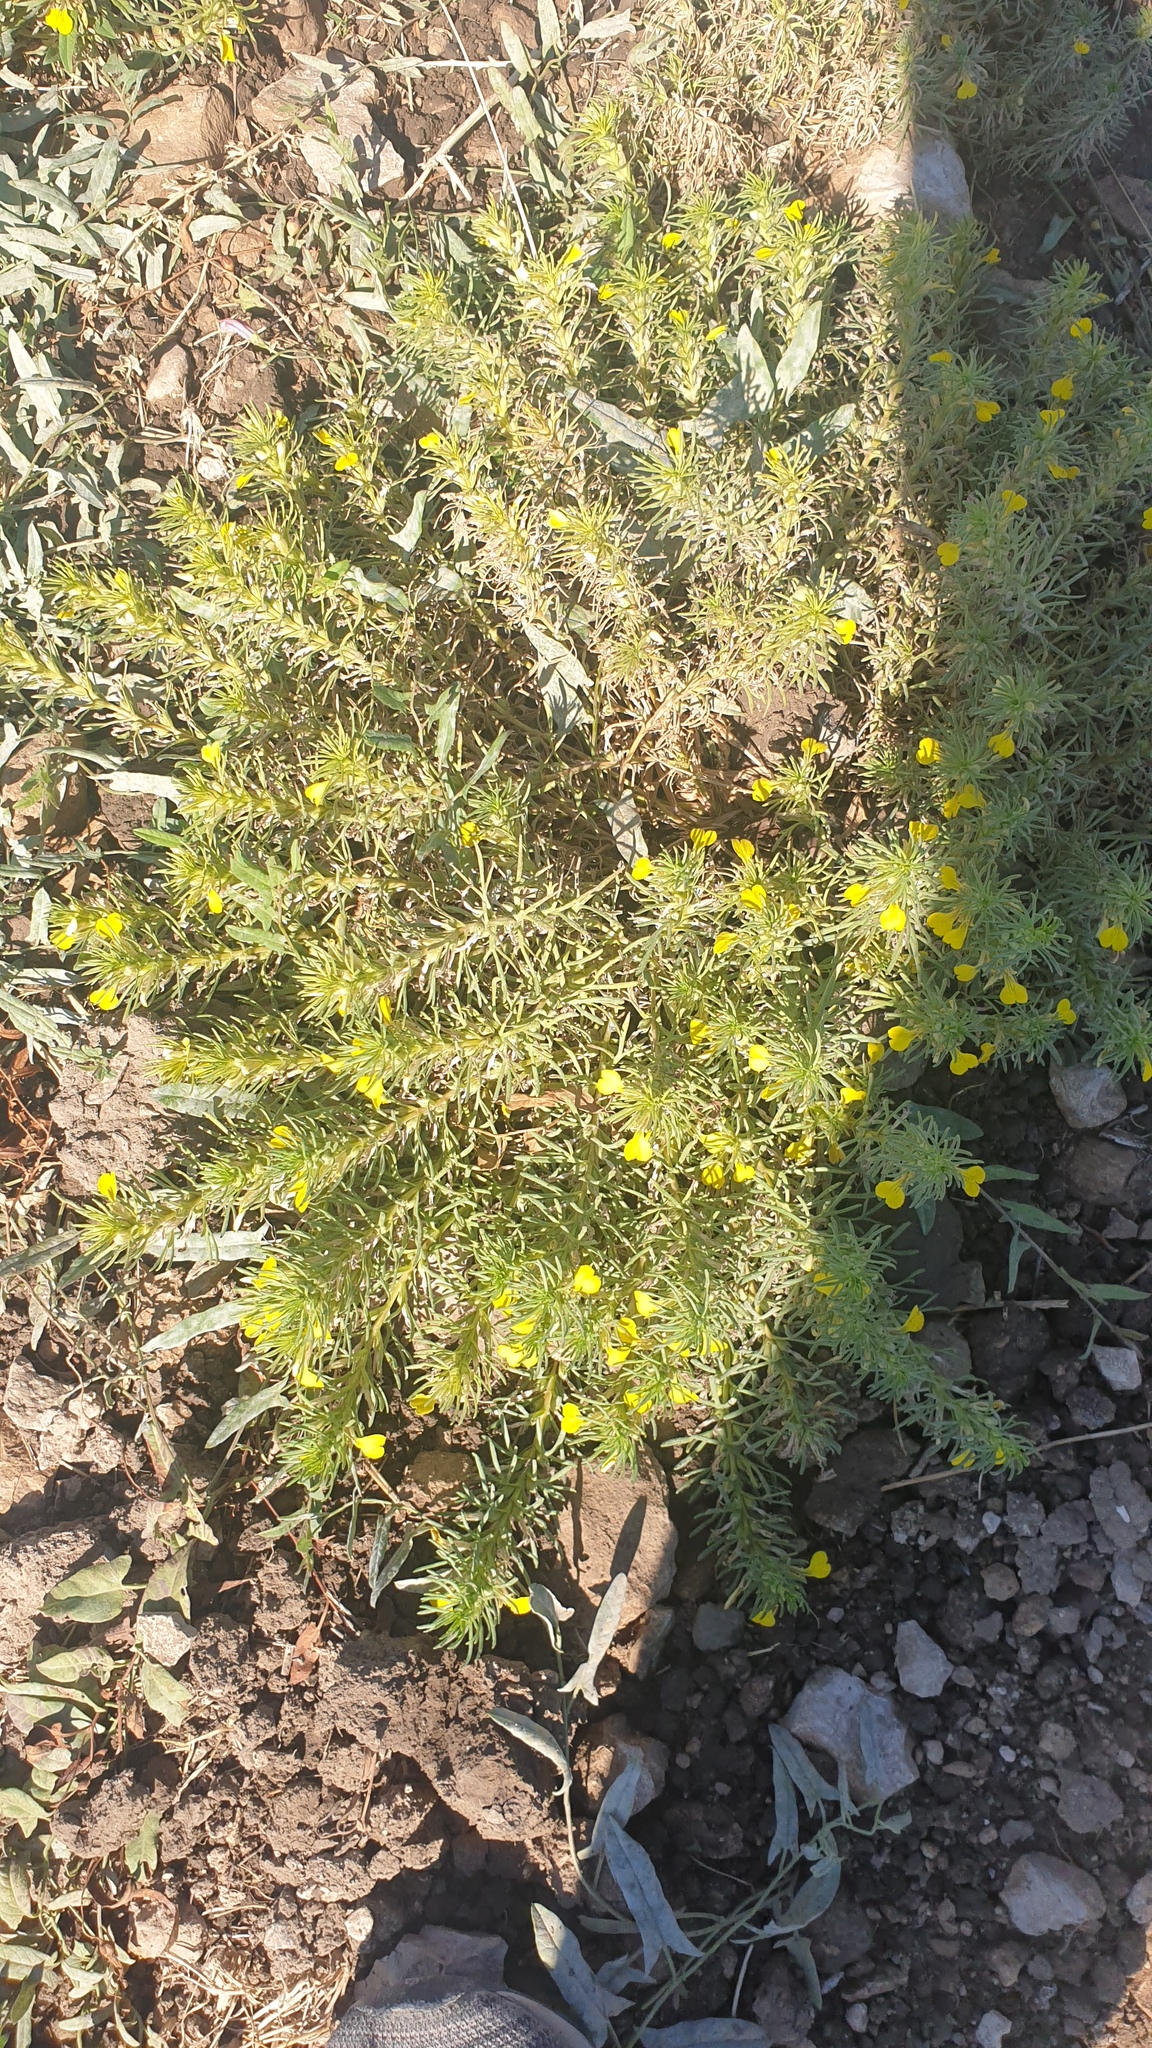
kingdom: Plantae
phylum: Tracheophyta
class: Magnoliopsida
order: Lamiales
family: Lamiaceae
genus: Ajuga
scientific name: Ajuga chamaepitys
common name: Ground-pine
